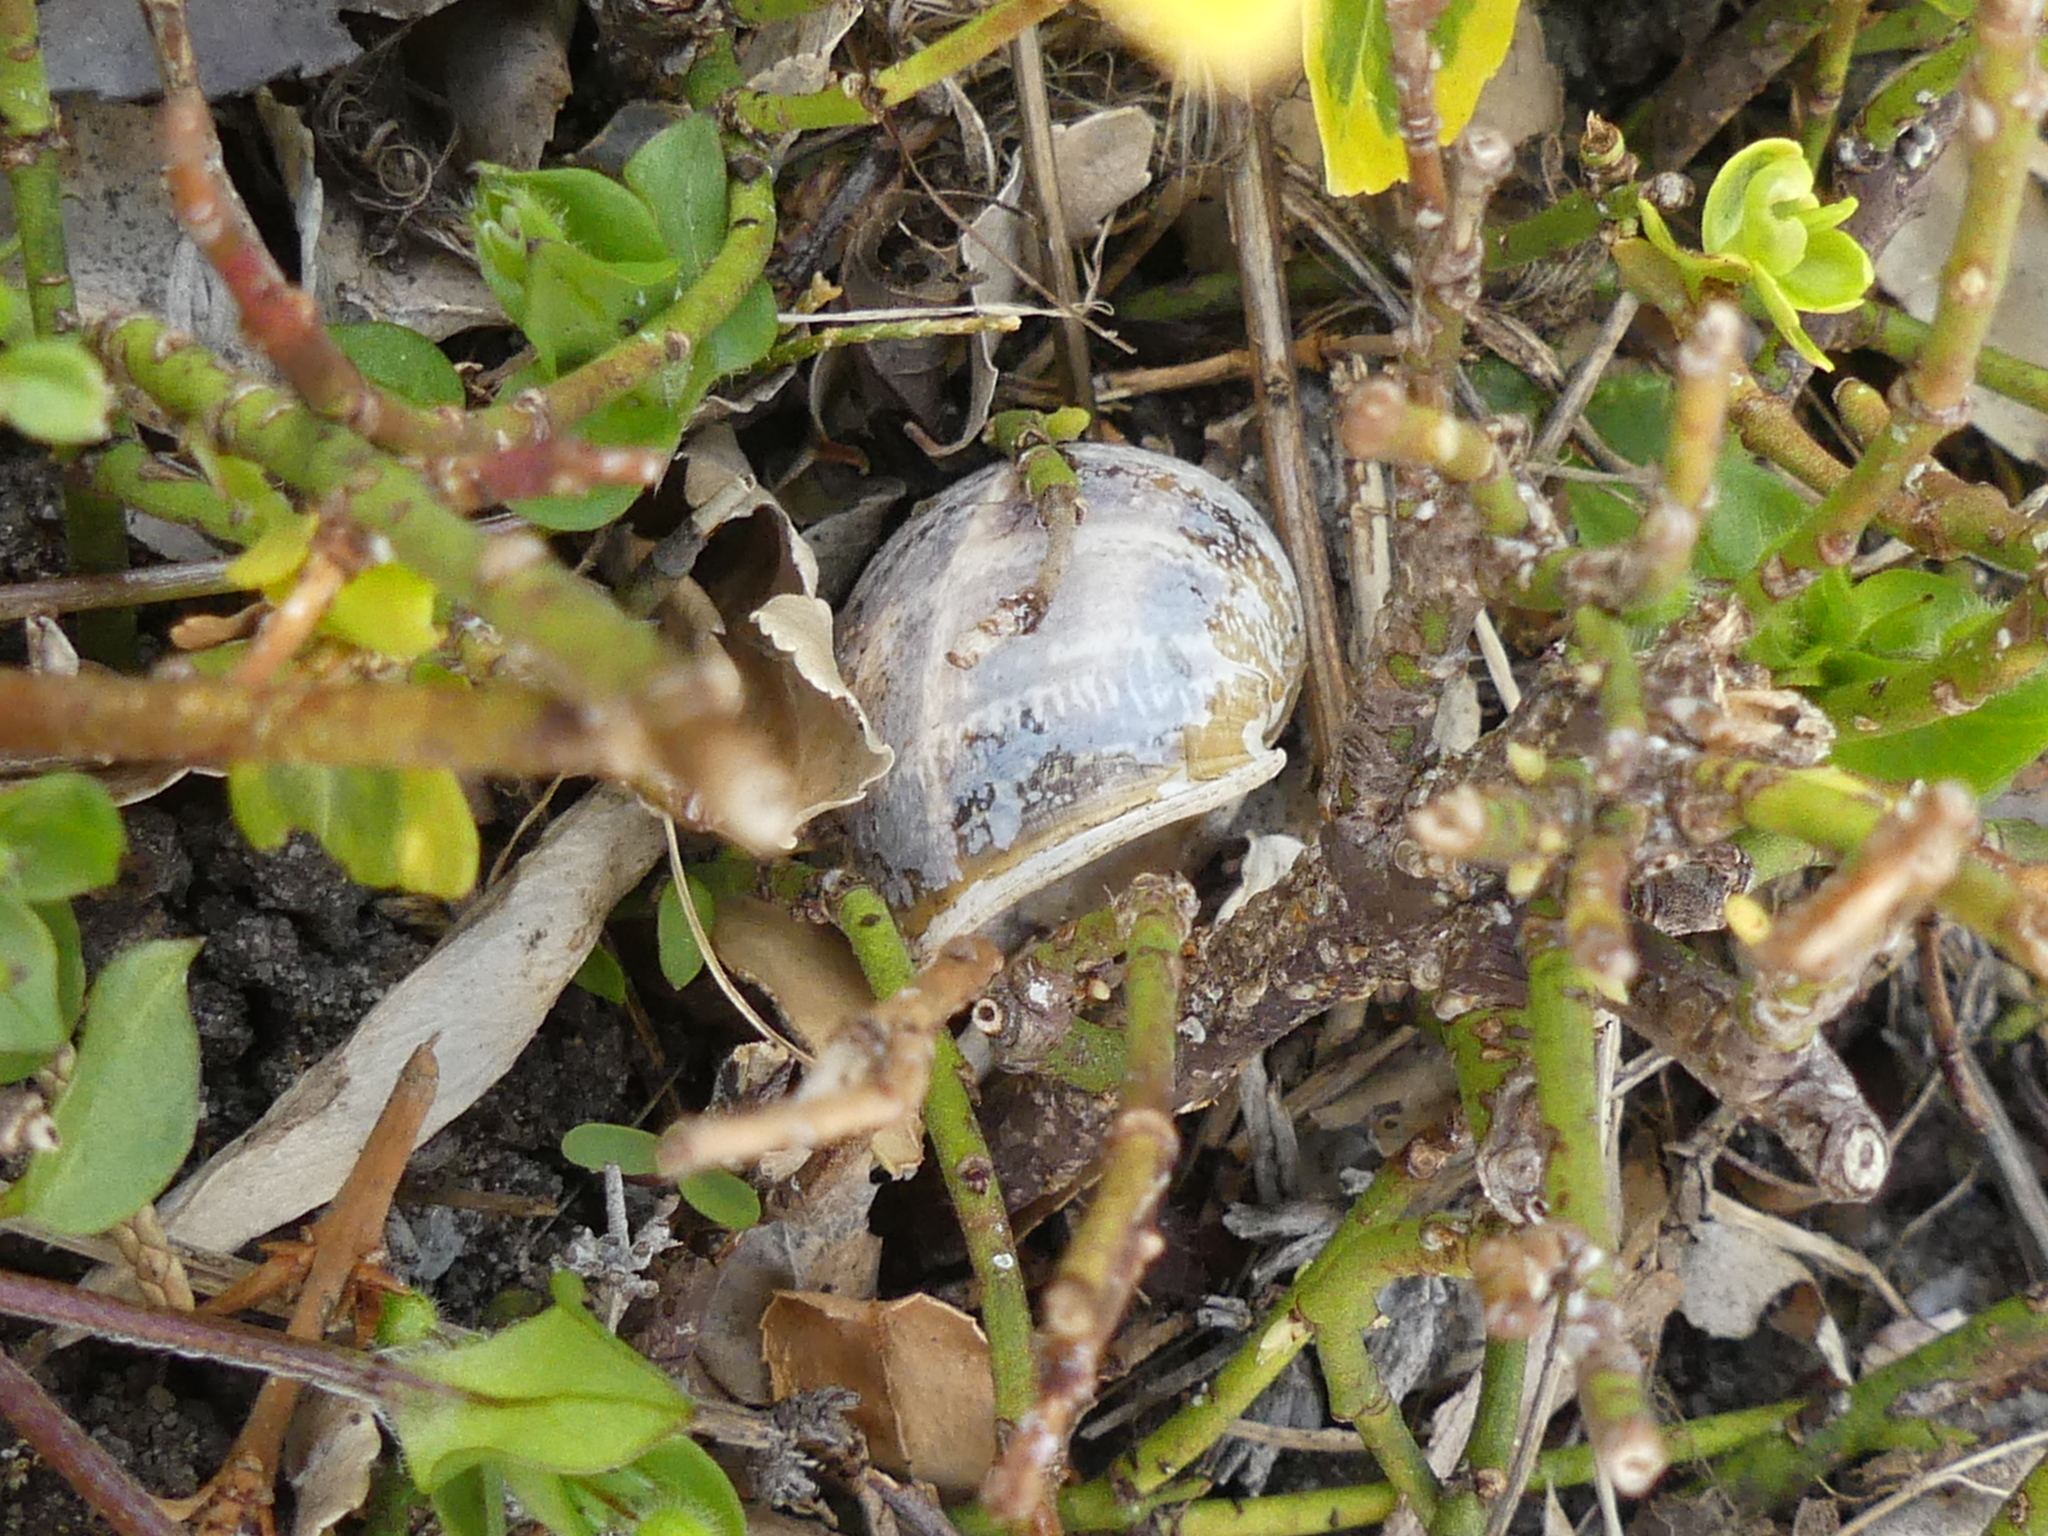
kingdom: Animalia
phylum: Mollusca
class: Gastropoda
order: Stylommatophora
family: Helicidae
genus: Cornu
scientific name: Cornu aspersum
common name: Brown garden snail
